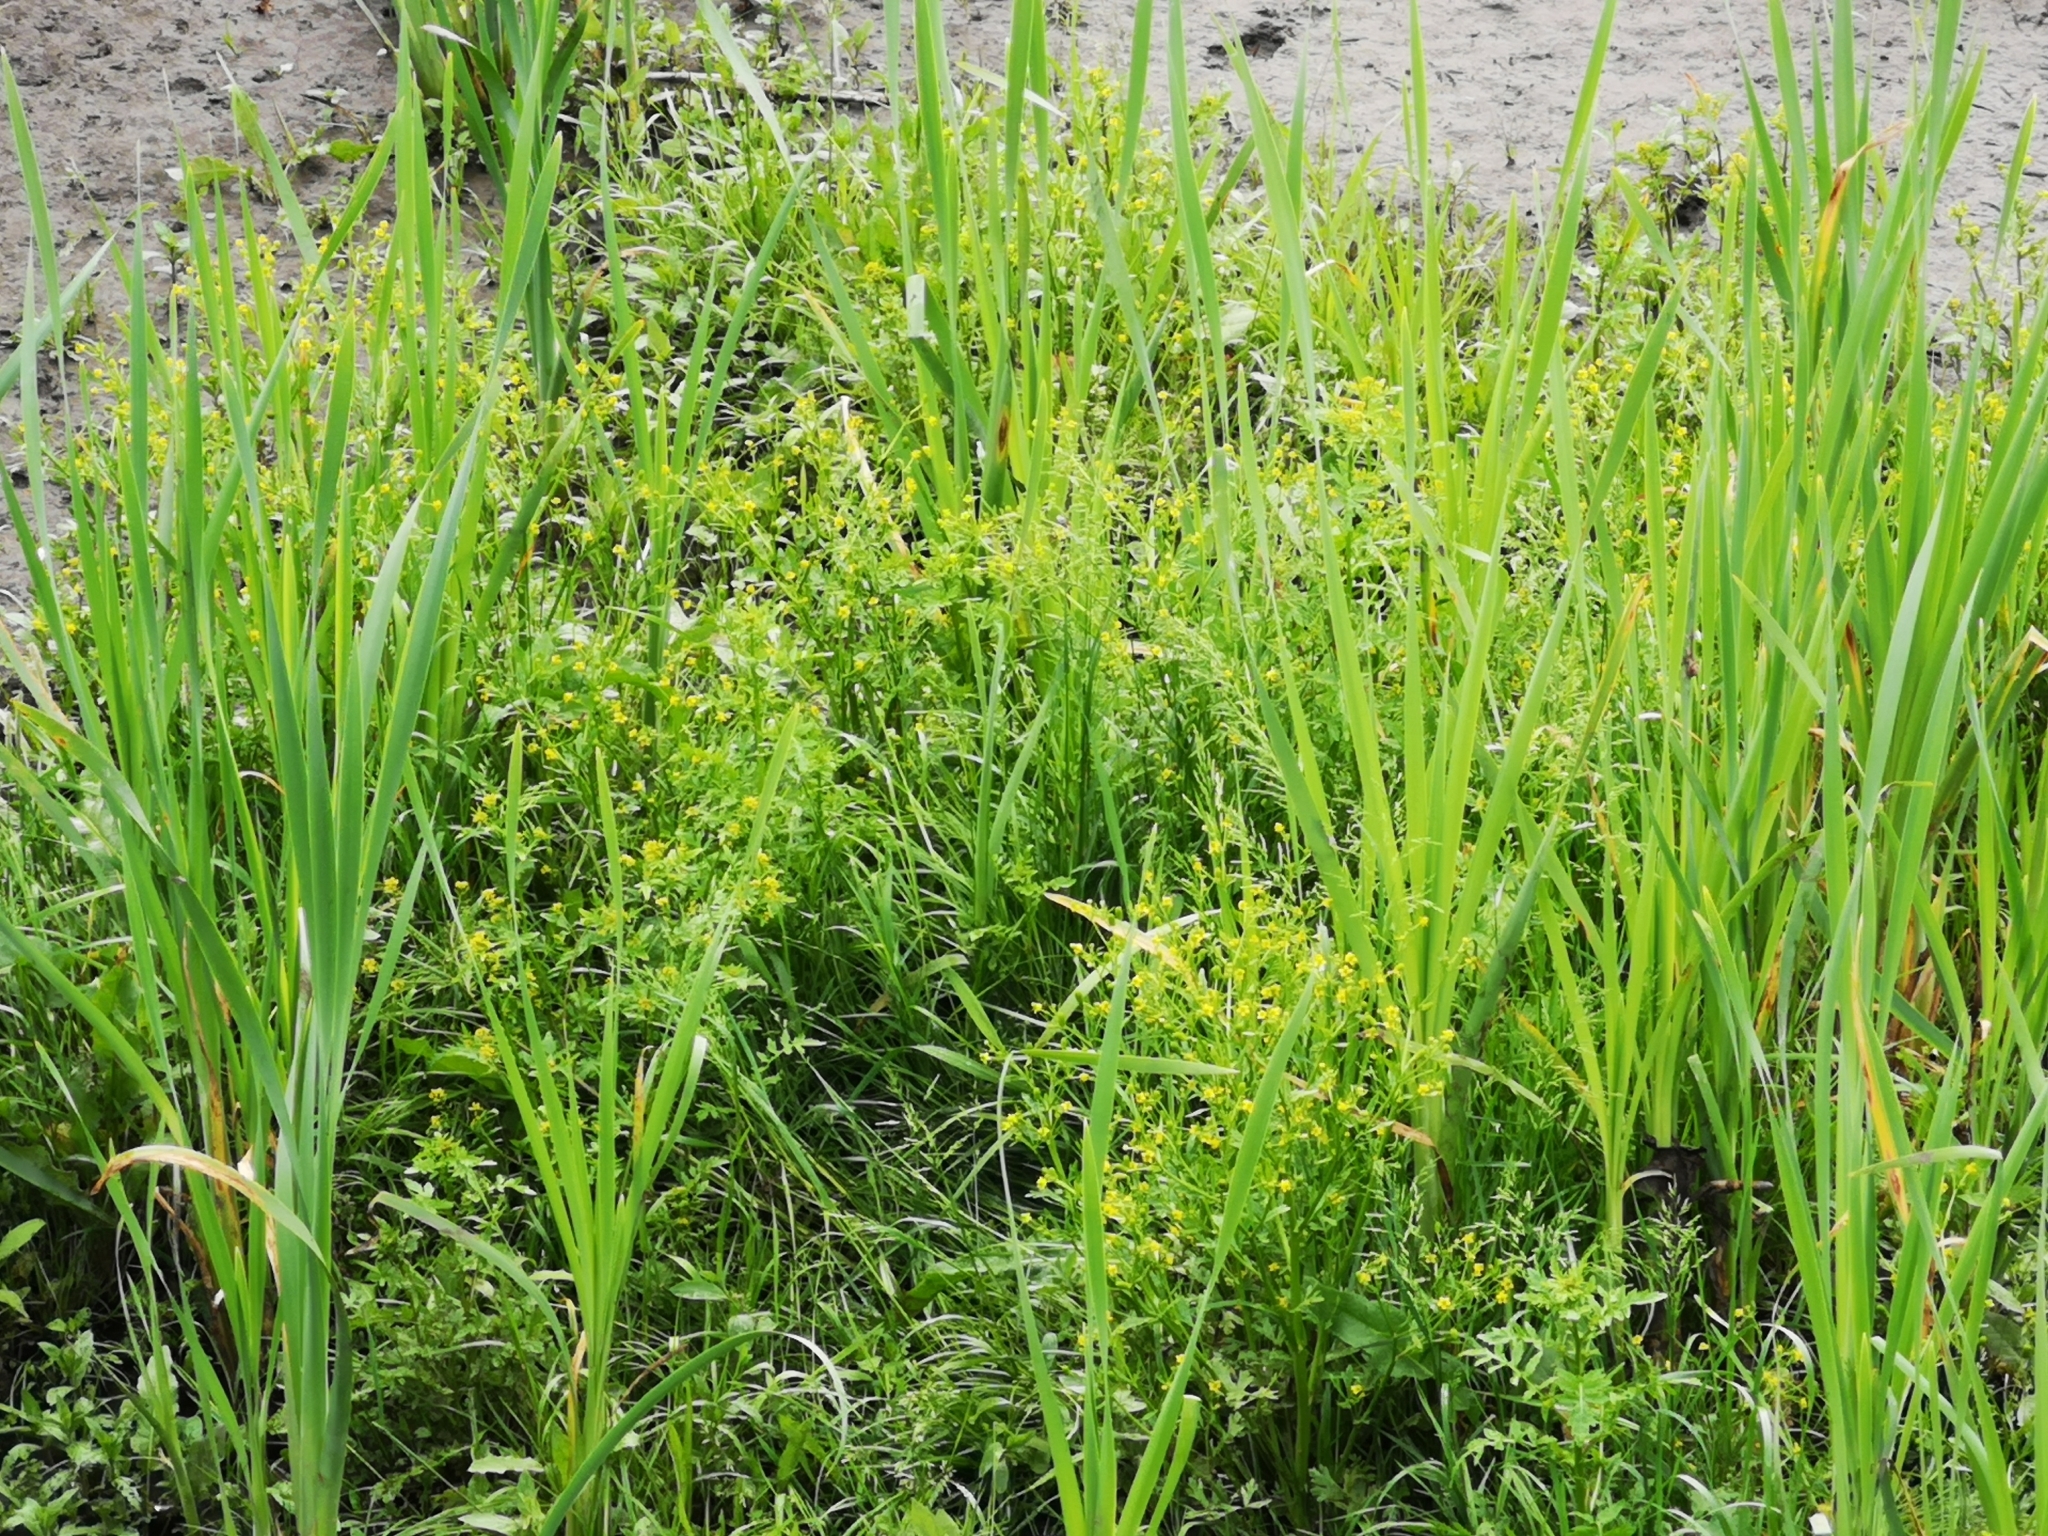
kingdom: Plantae
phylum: Tracheophyta
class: Magnoliopsida
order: Ranunculales
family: Ranunculaceae
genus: Ranunculus
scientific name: Ranunculus sceleratus
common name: Celery-leaved buttercup
